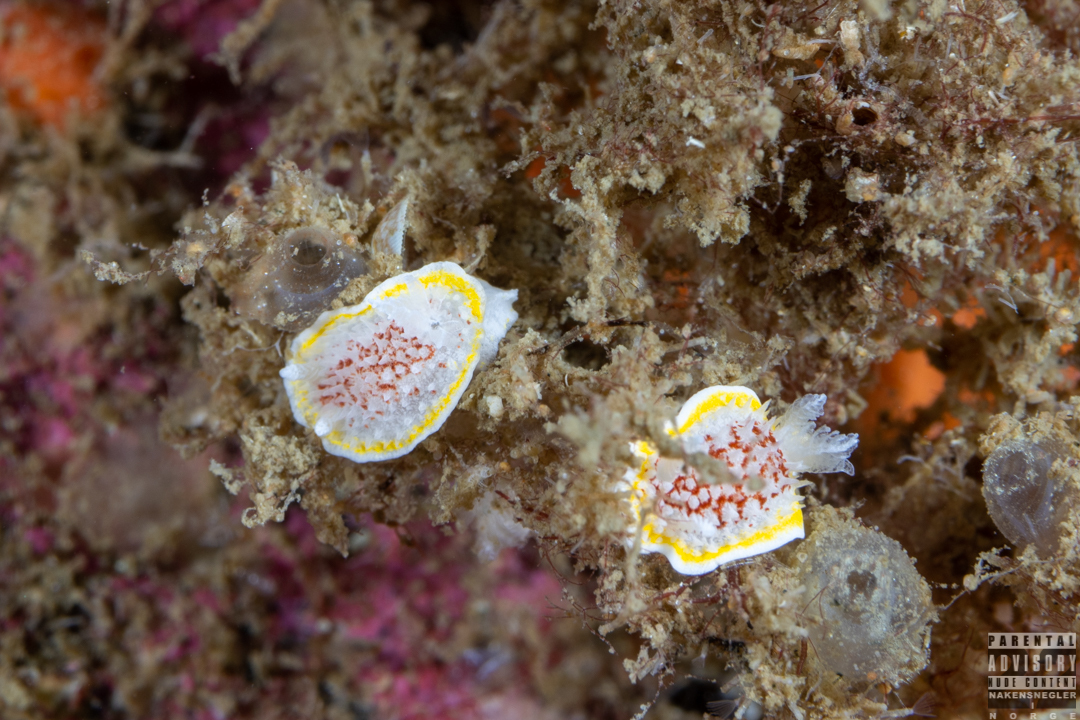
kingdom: Animalia
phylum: Mollusca
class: Gastropoda
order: Nudibranchia
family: Calycidorididae
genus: Diaphorodoris
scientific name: Diaphorodoris luteocincta
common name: Fried egg nudibranch
